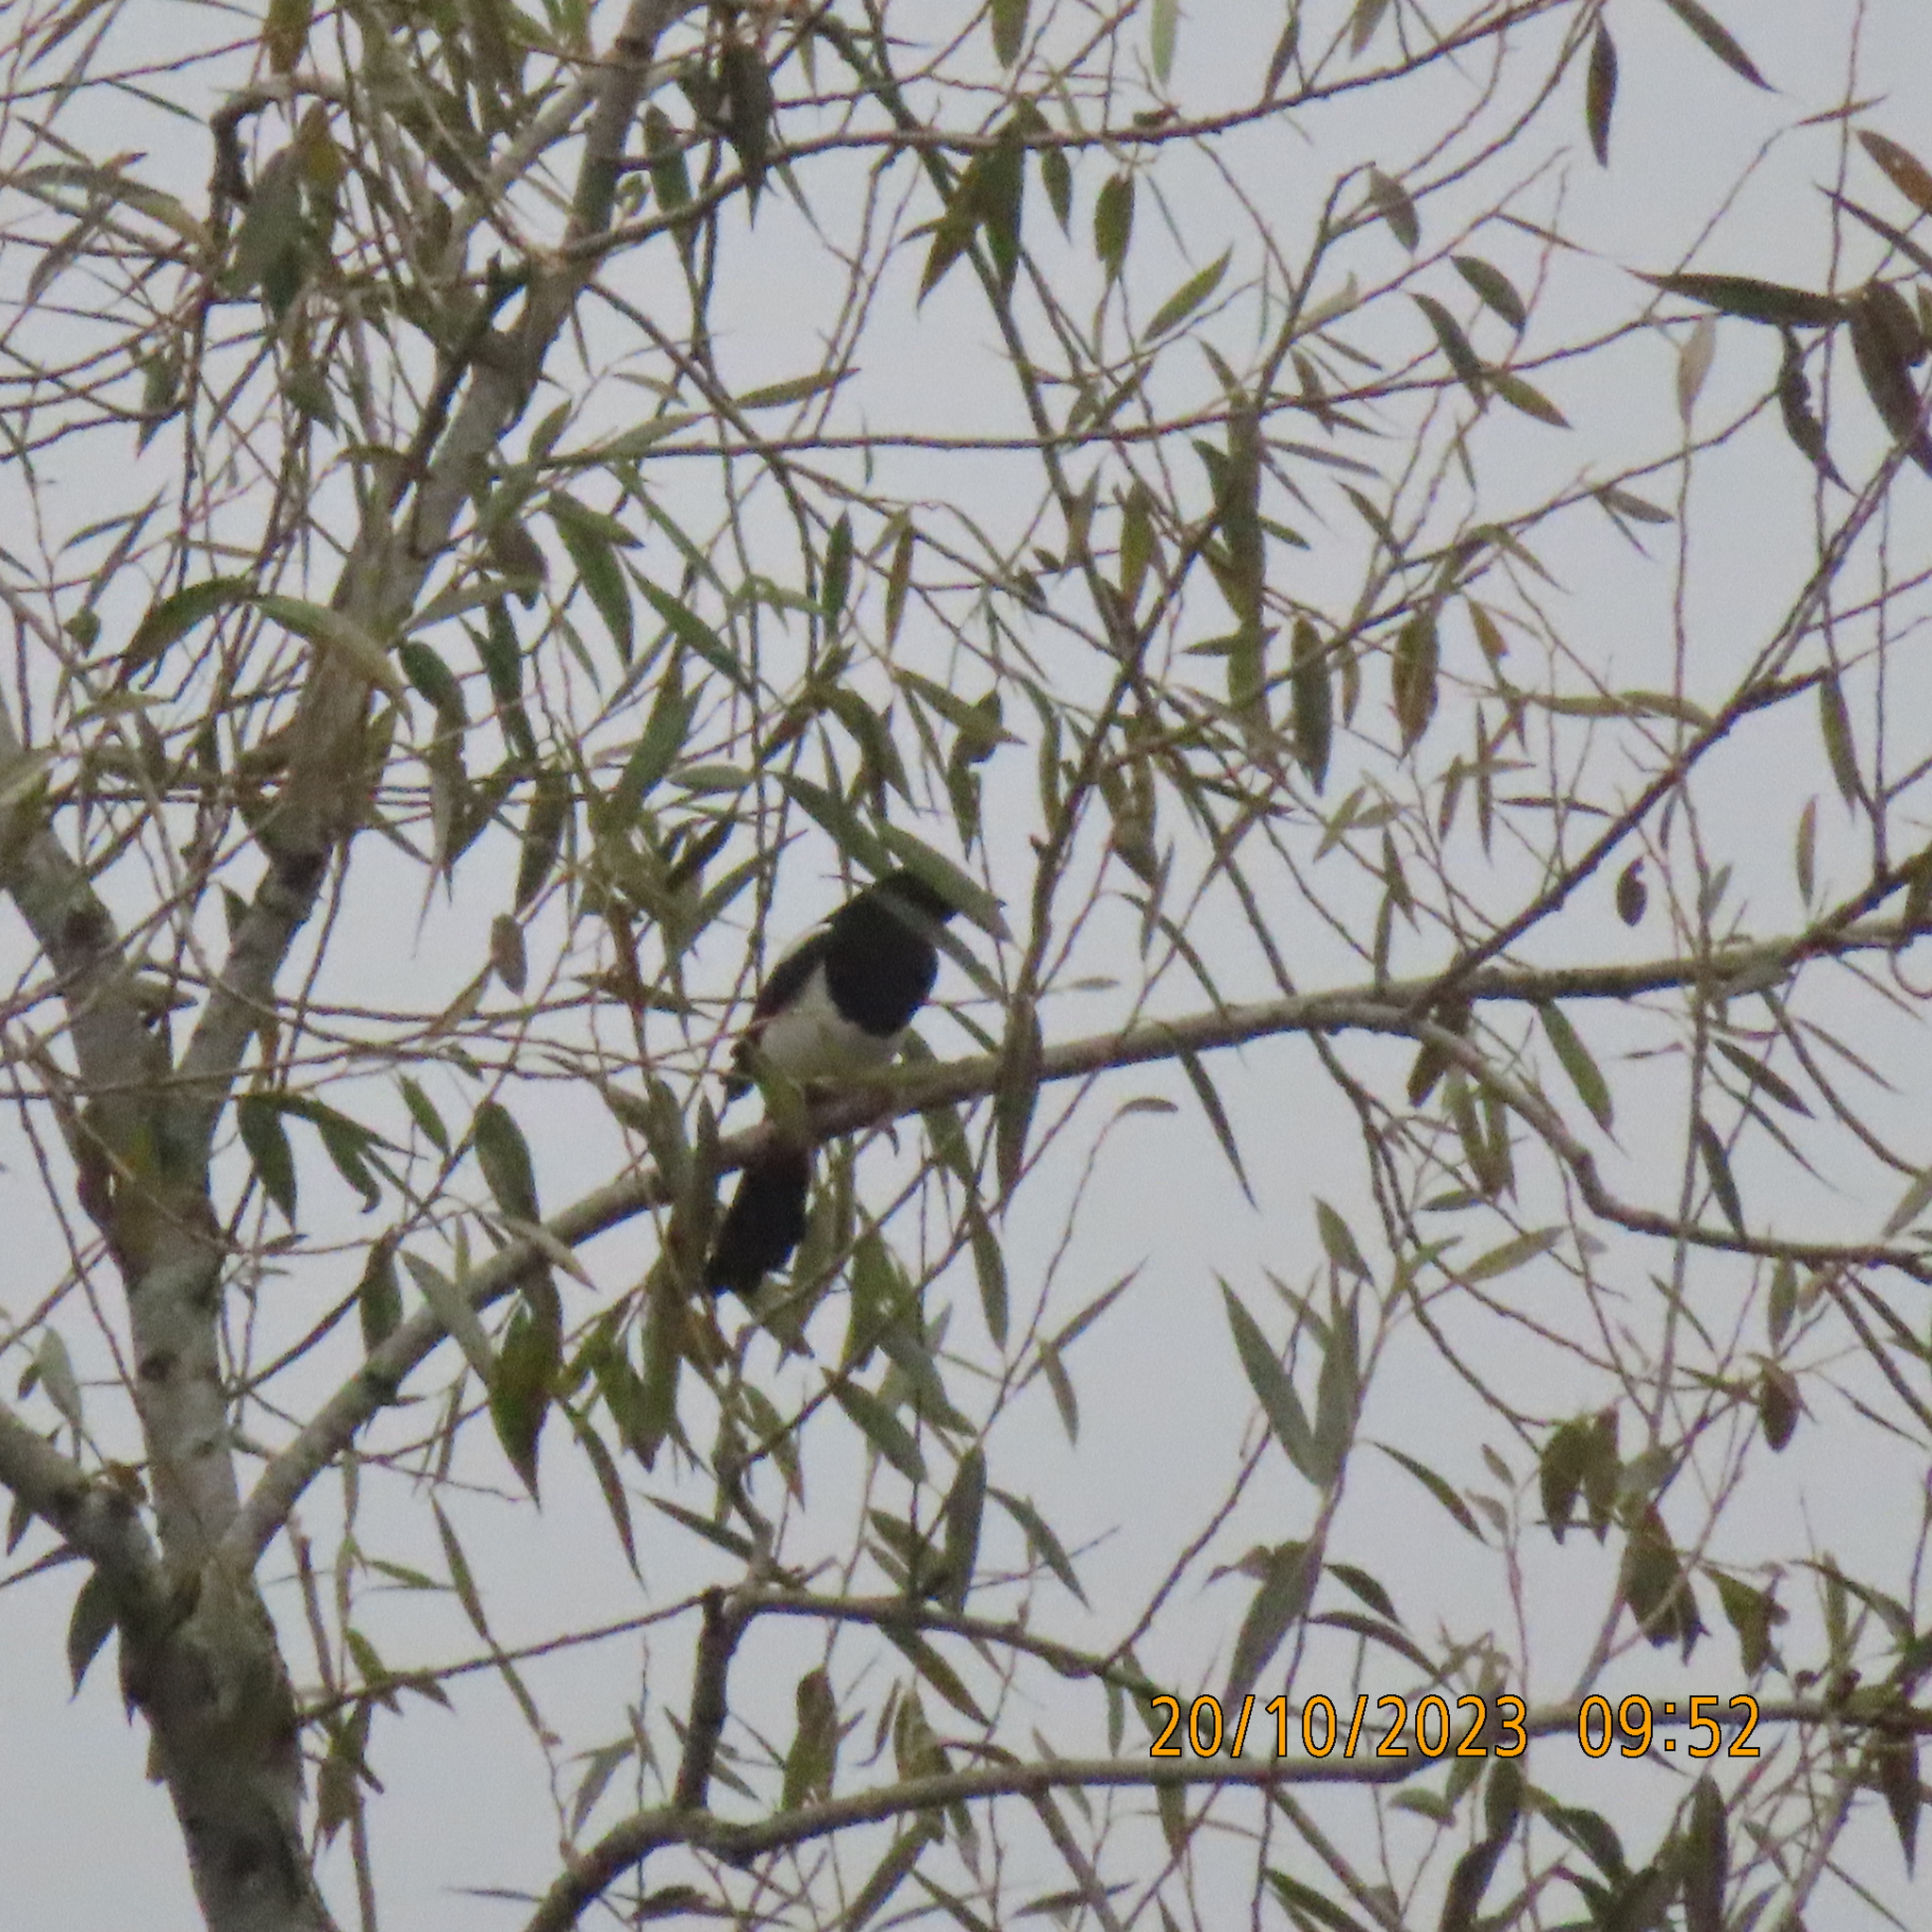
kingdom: Animalia
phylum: Chordata
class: Aves
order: Passeriformes
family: Corvidae
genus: Pica
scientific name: Pica pica
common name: Eurasian magpie
